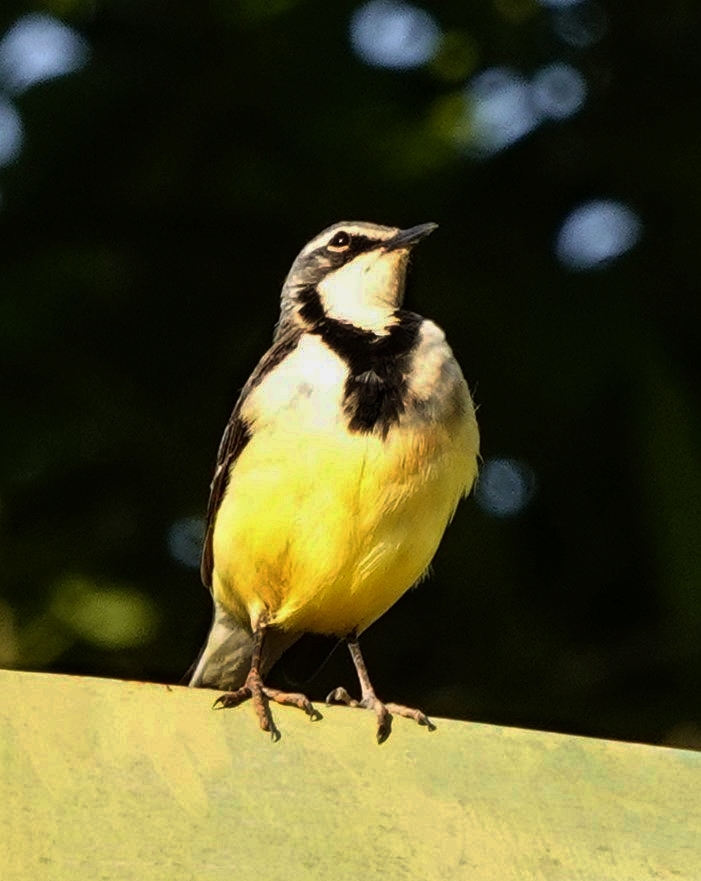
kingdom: Animalia
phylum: Chordata
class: Aves
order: Passeriformes
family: Motacillidae
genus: Motacilla
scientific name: Motacilla flaviventris
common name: Madagascar wagtail
